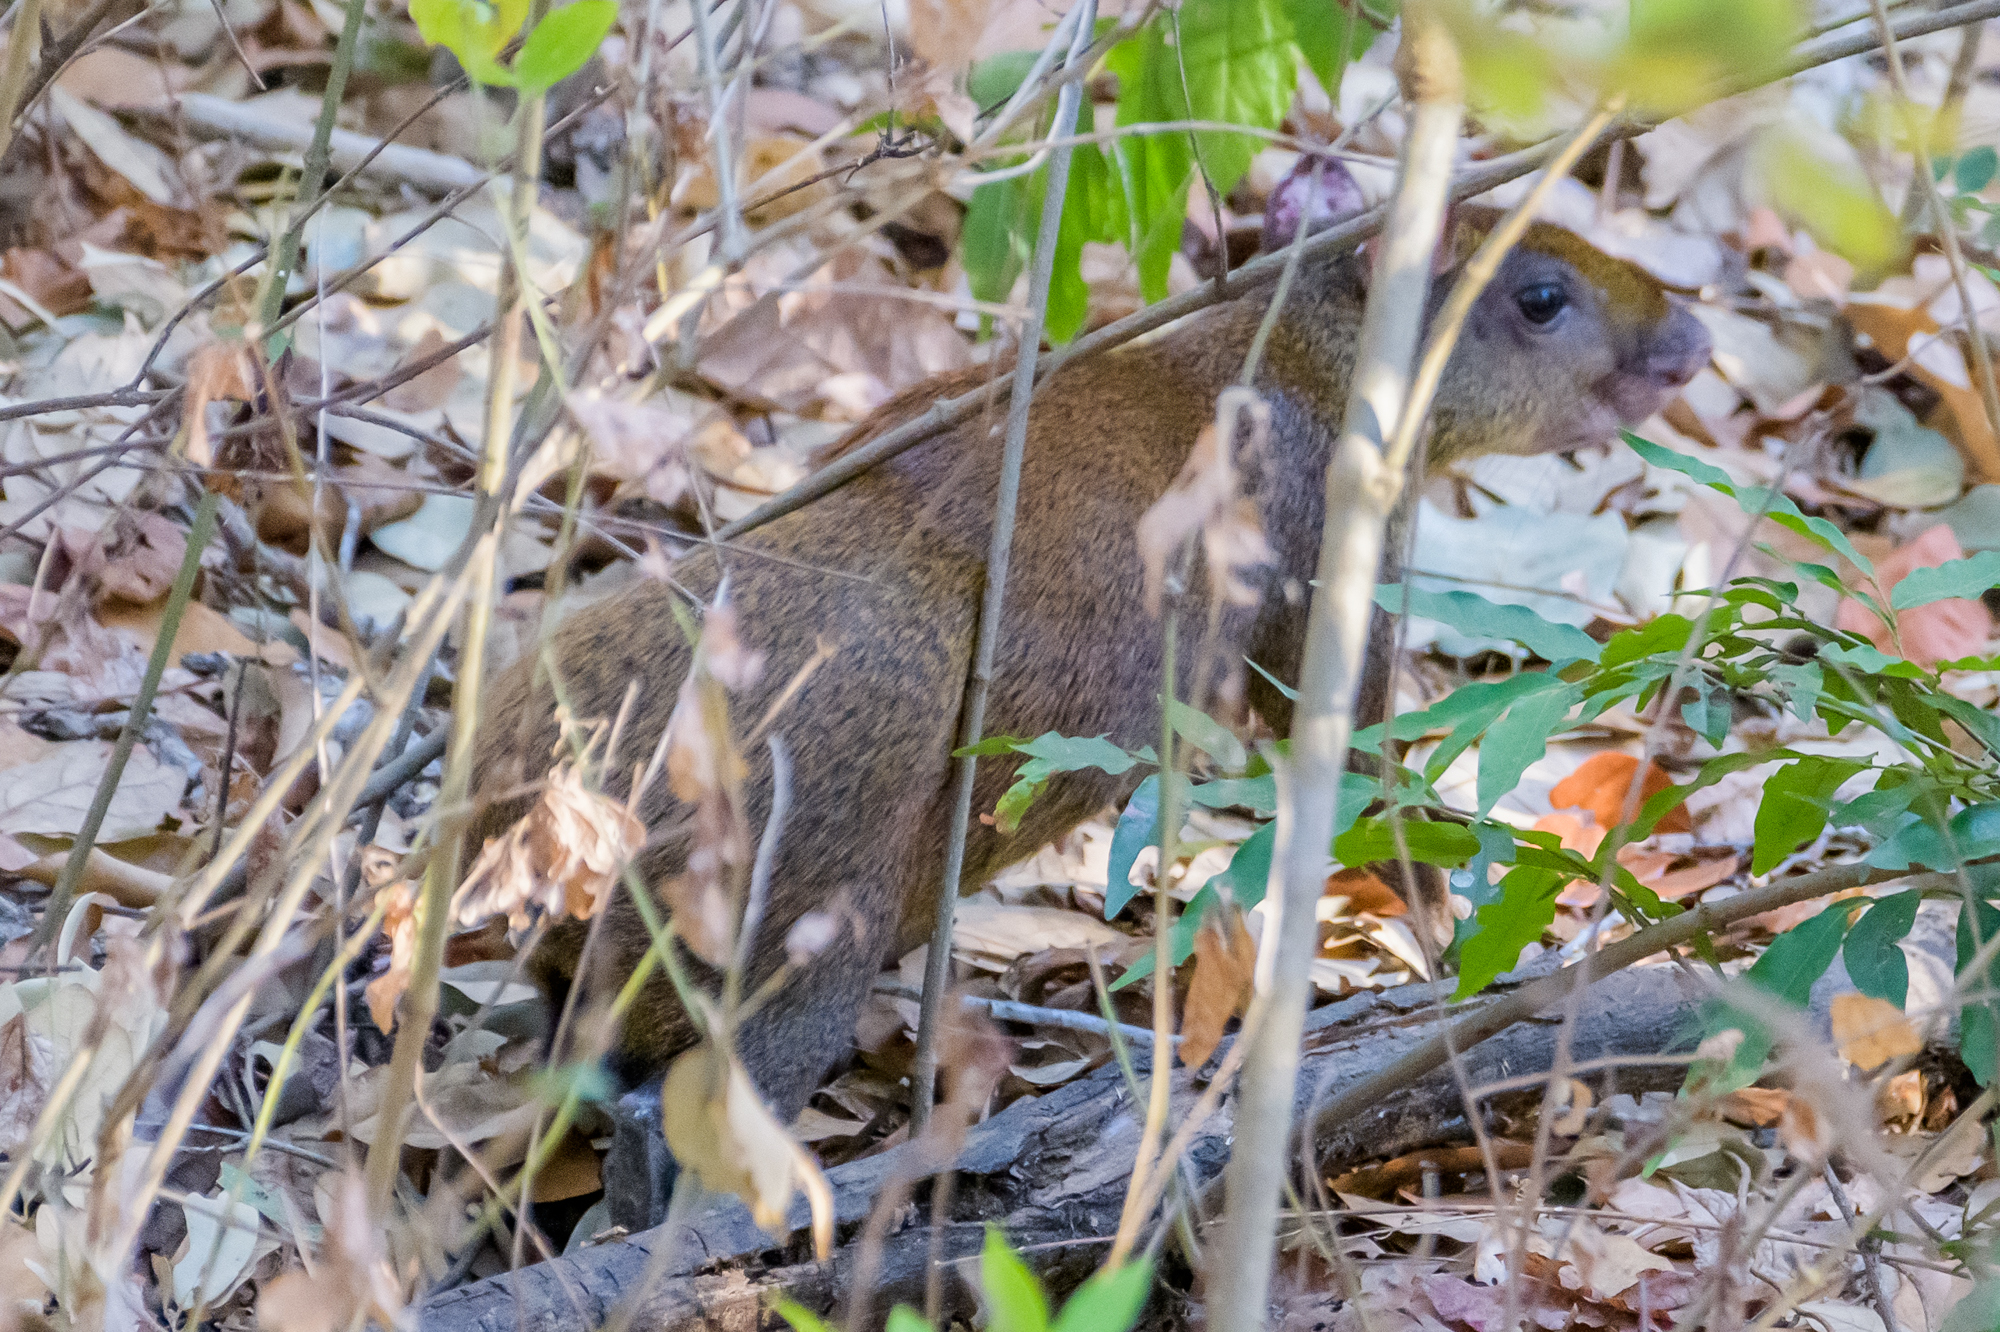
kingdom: Animalia
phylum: Chordata
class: Mammalia
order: Rodentia
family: Dasyproctidae
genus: Dasyprocta
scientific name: Dasyprocta punctata
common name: Central american agouti
